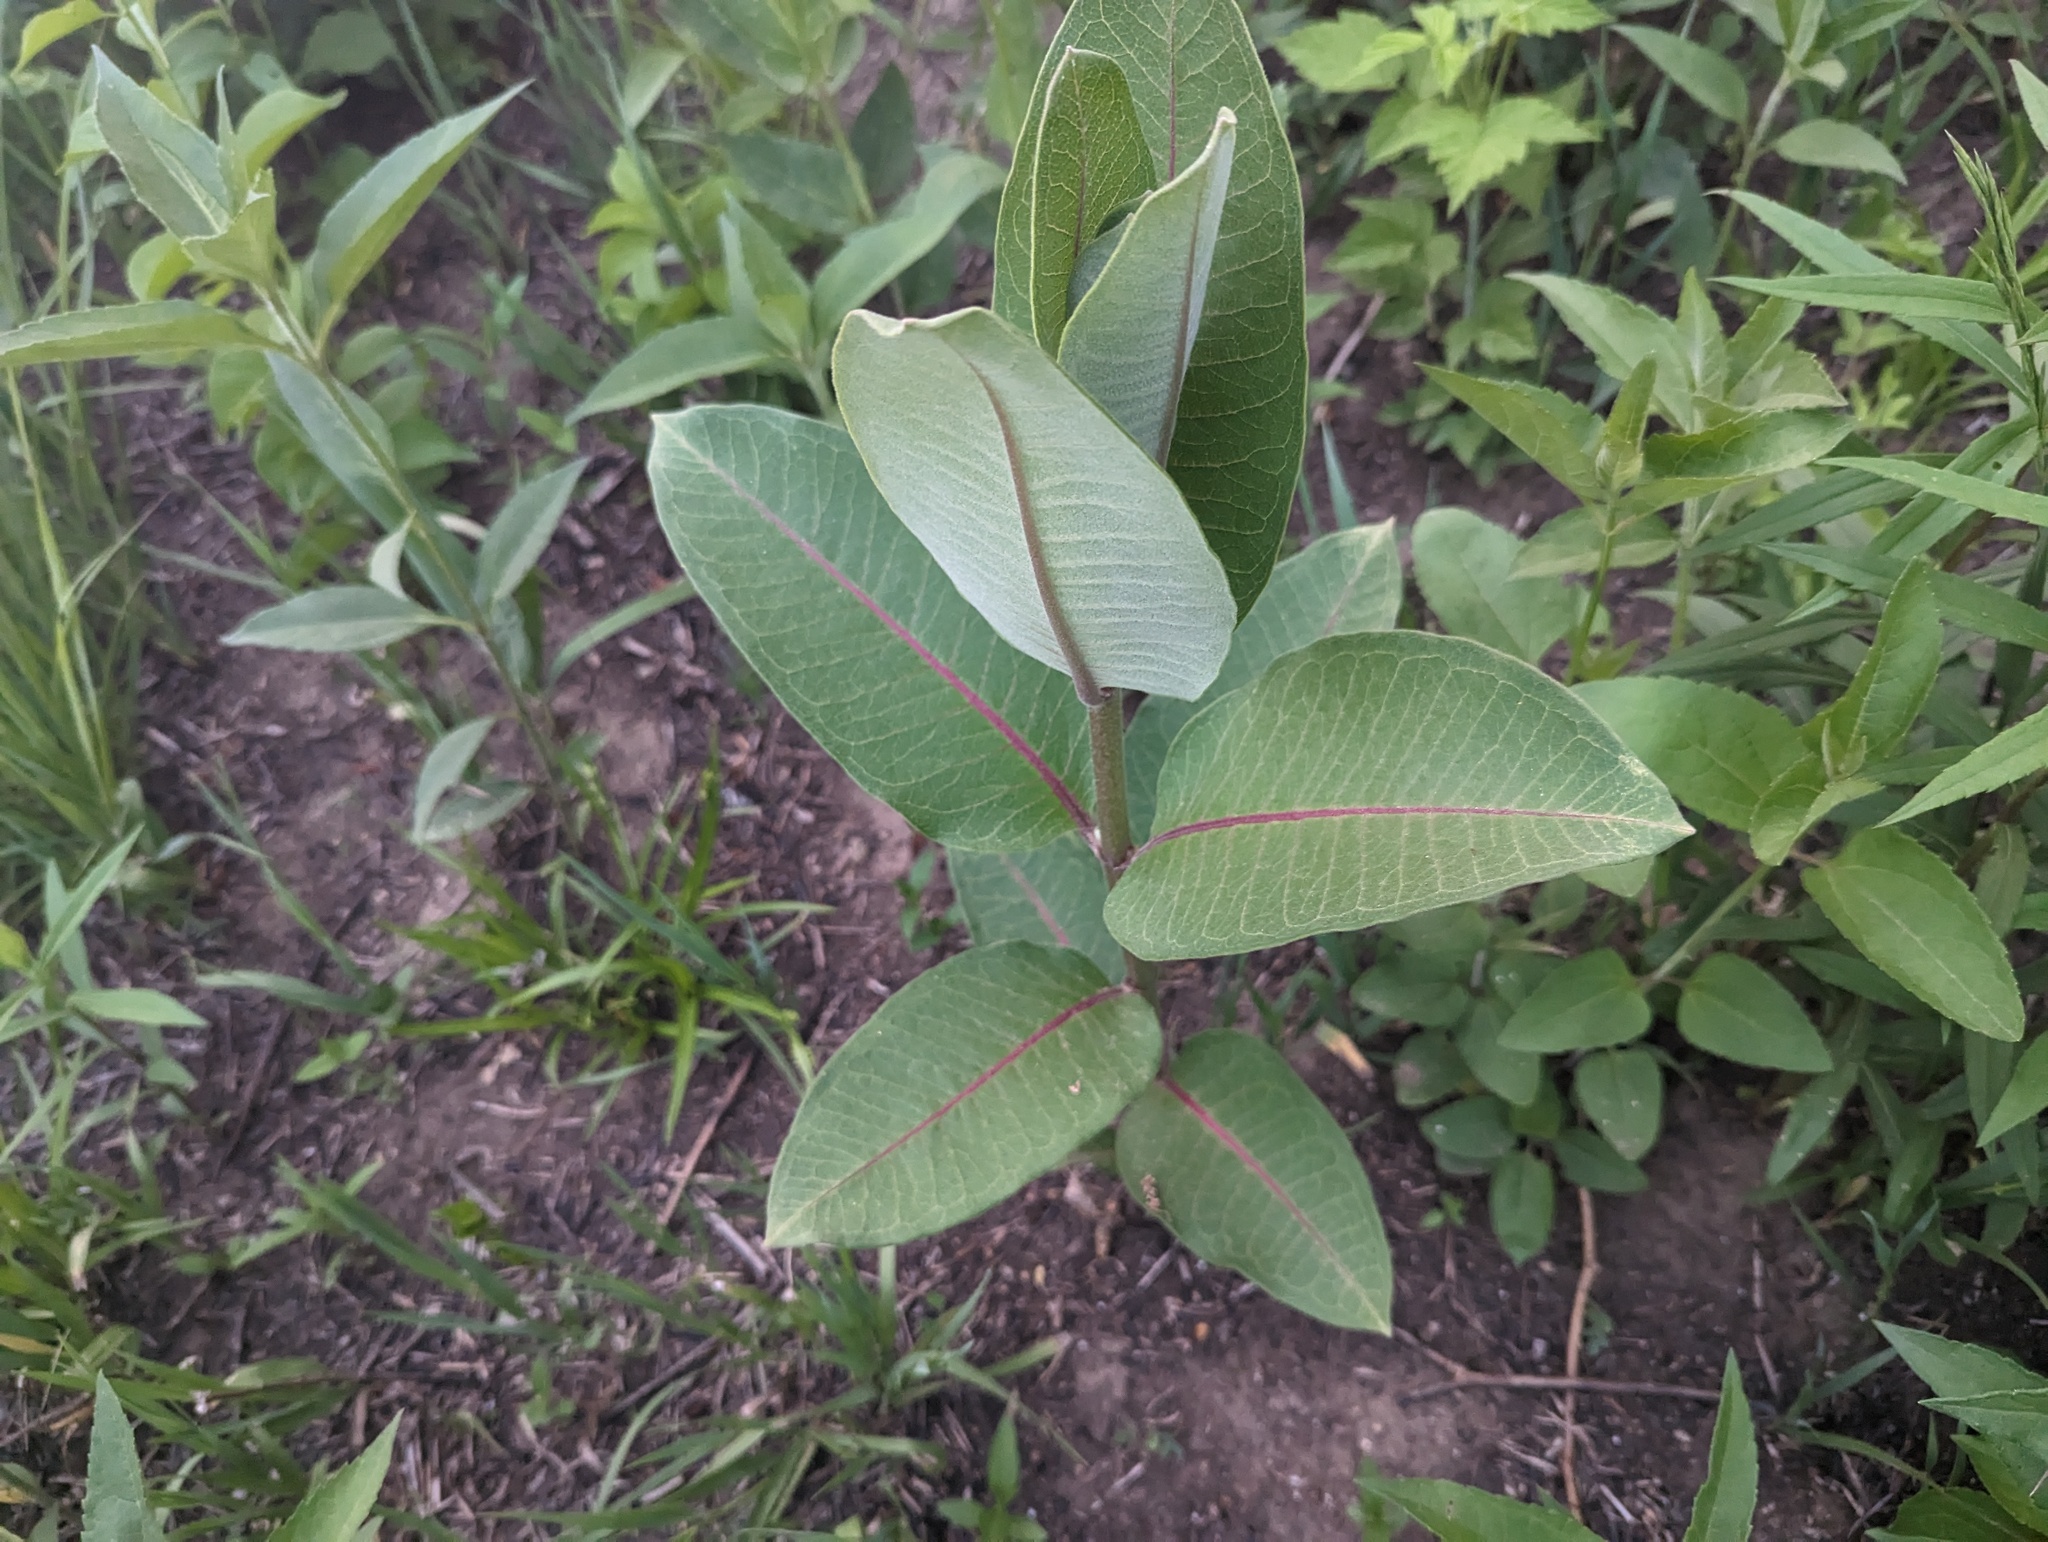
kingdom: Plantae
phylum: Tracheophyta
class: Magnoliopsida
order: Gentianales
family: Apocynaceae
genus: Asclepias
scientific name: Asclepias syriaca
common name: Common milkweed
